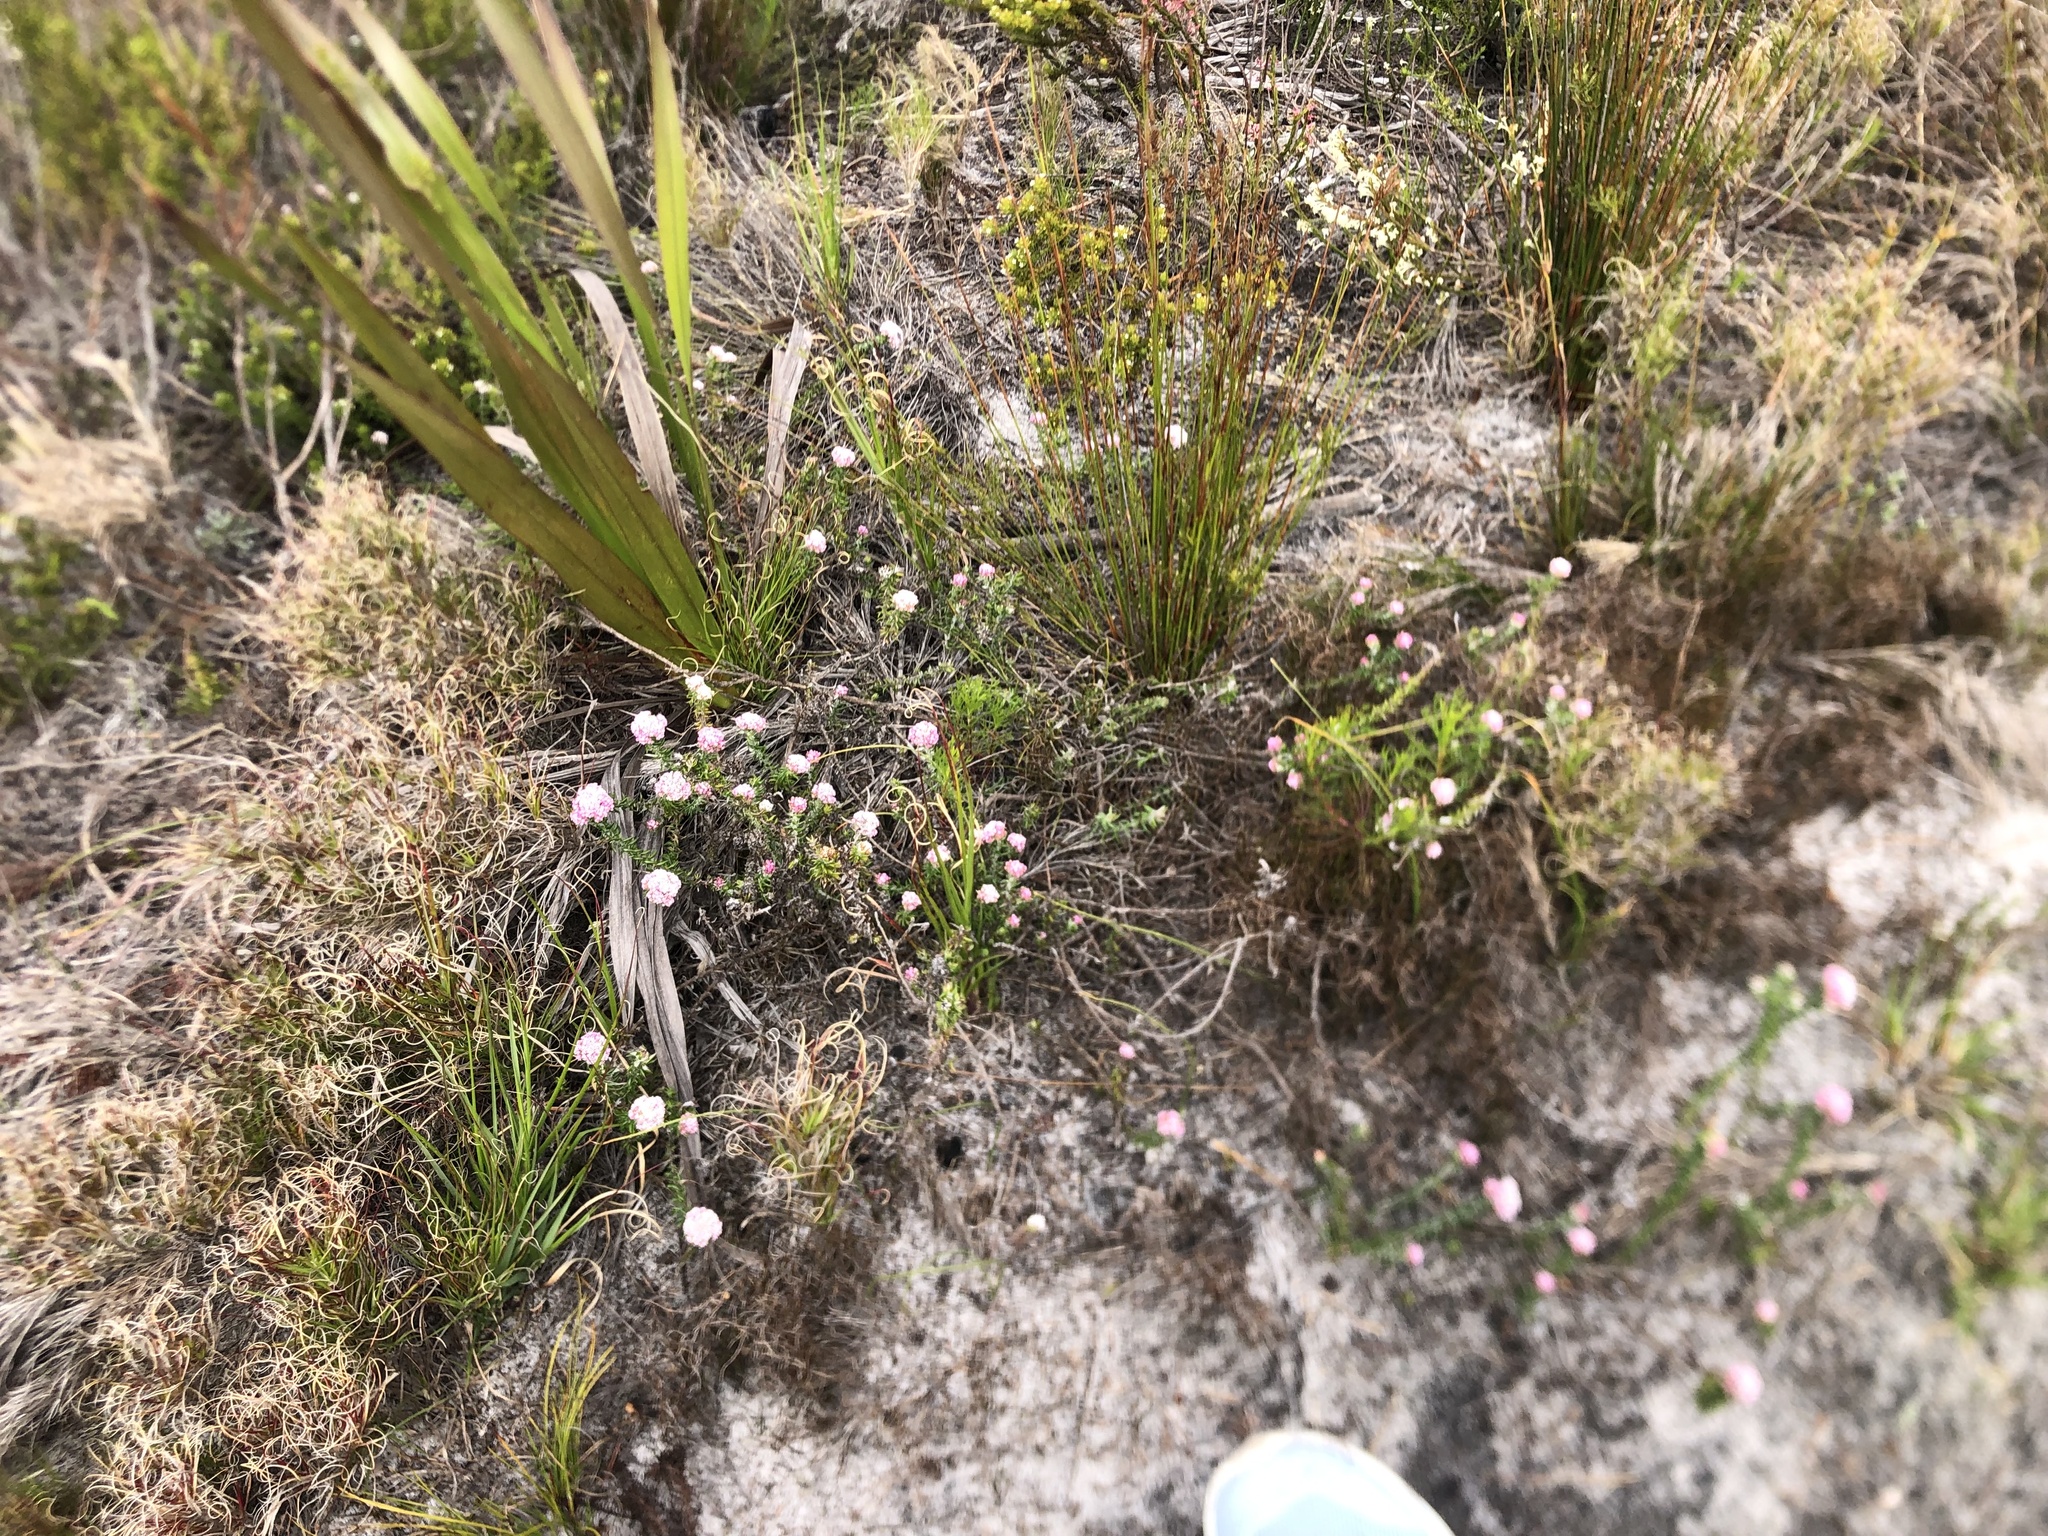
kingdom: Plantae
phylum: Tracheophyta
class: Magnoliopsida
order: Asterales
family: Asteraceae
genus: Metalasia
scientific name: Metalasia divergens
